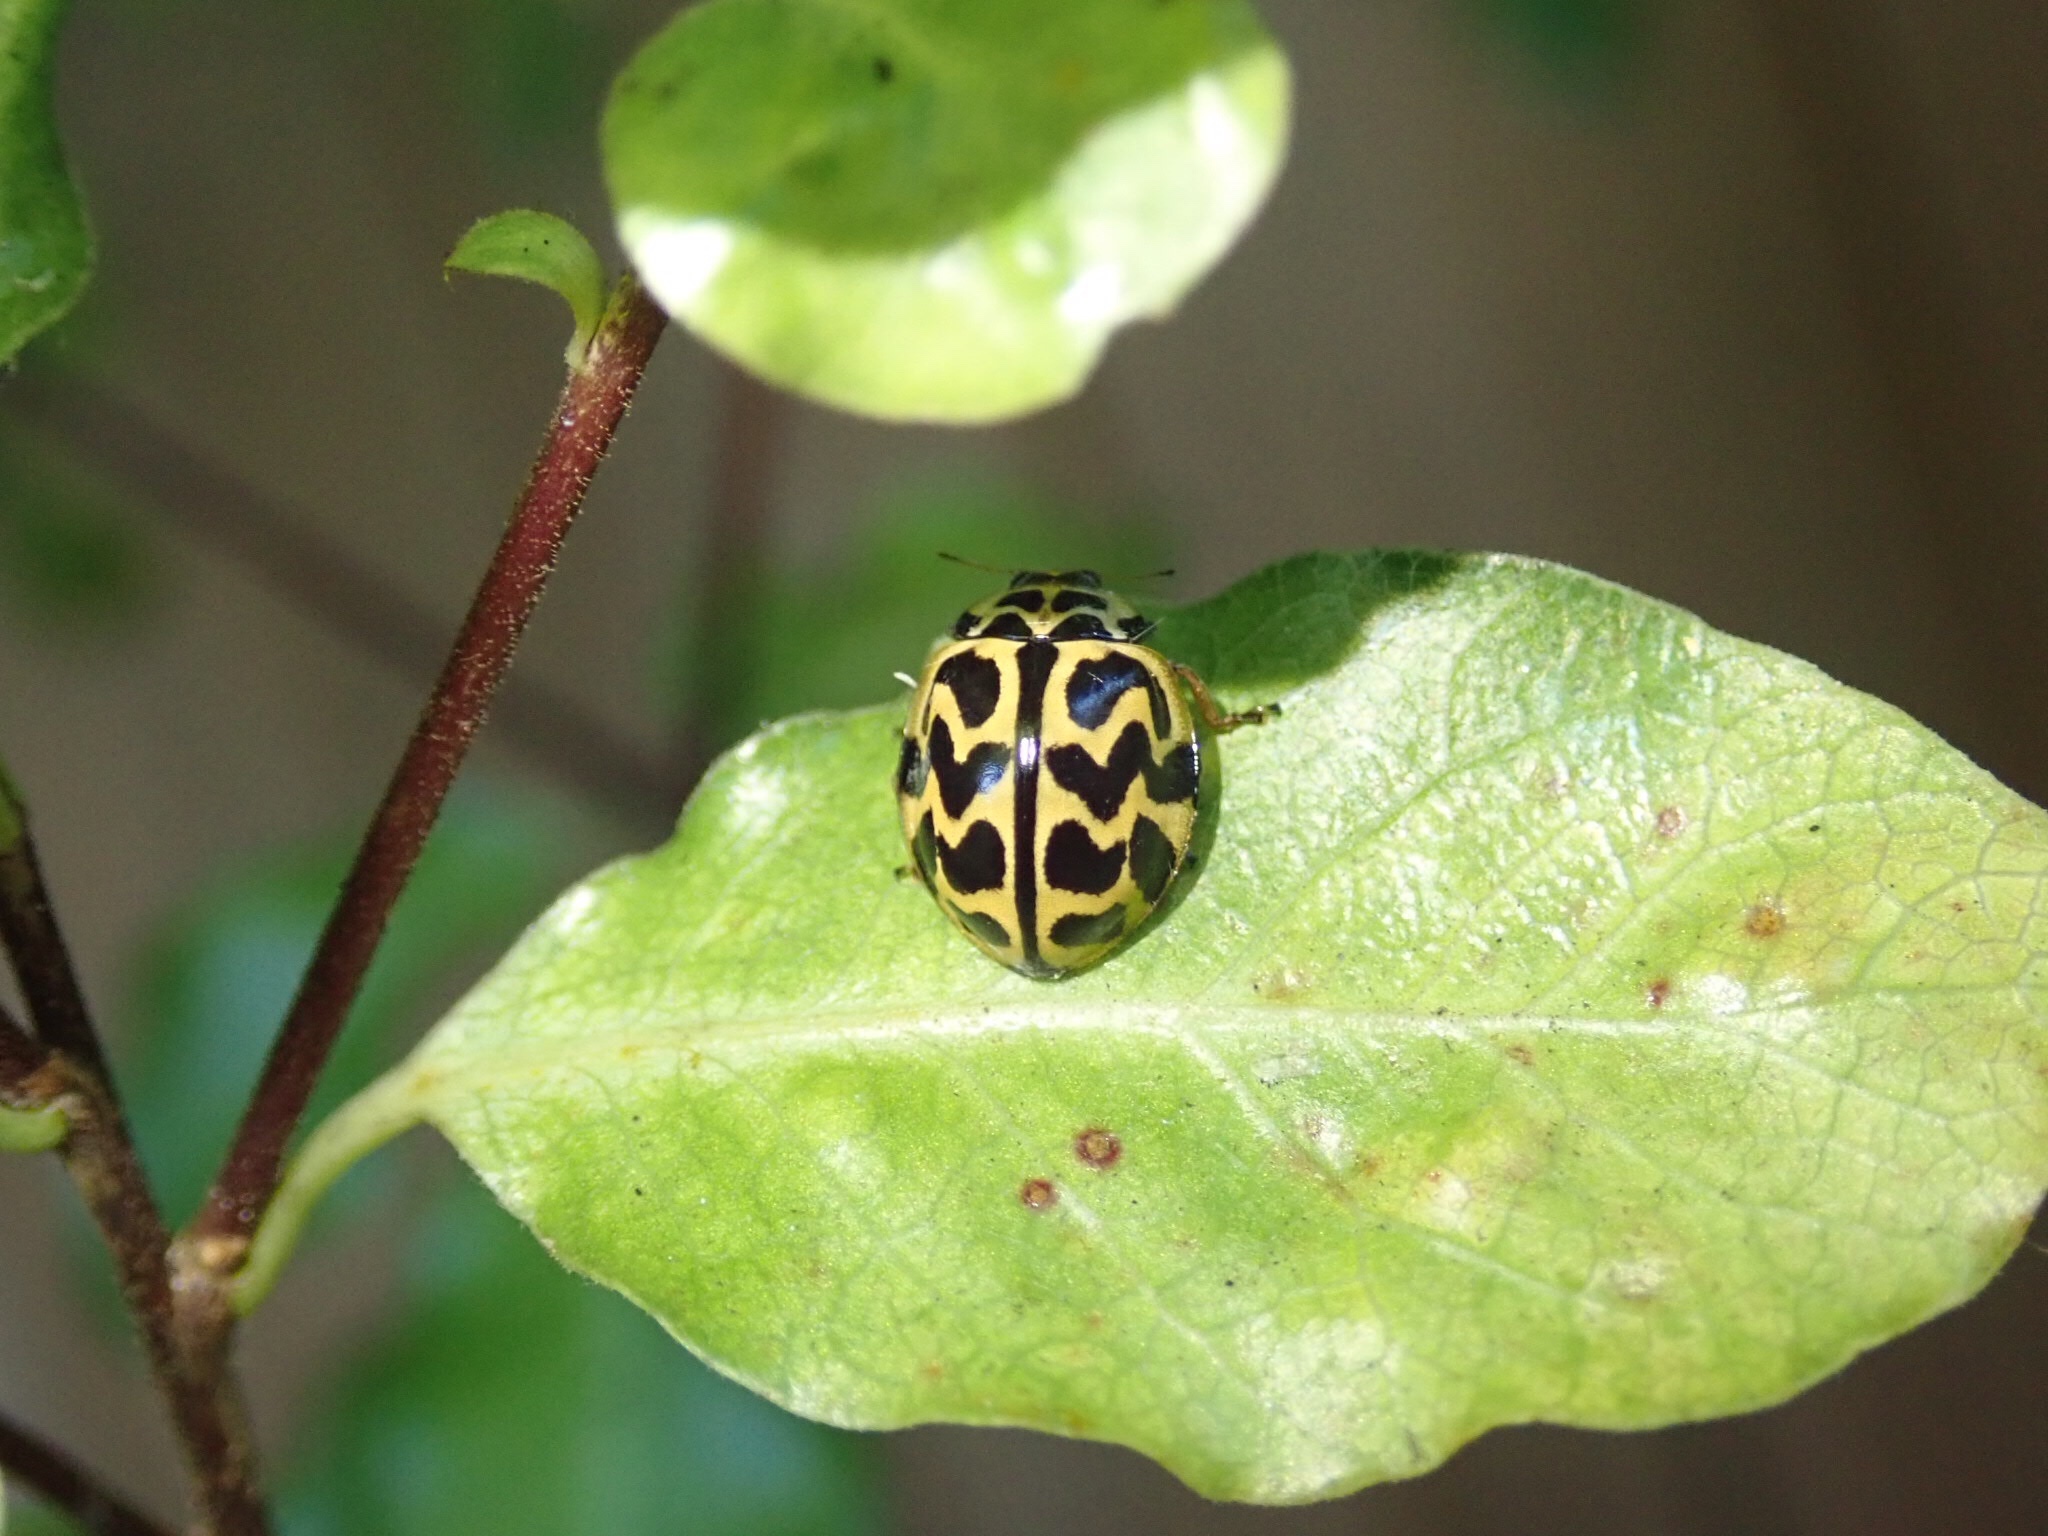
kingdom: Animalia
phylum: Arthropoda
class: Insecta
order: Coleoptera
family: Coccinellidae
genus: Cleobora
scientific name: Cleobora
